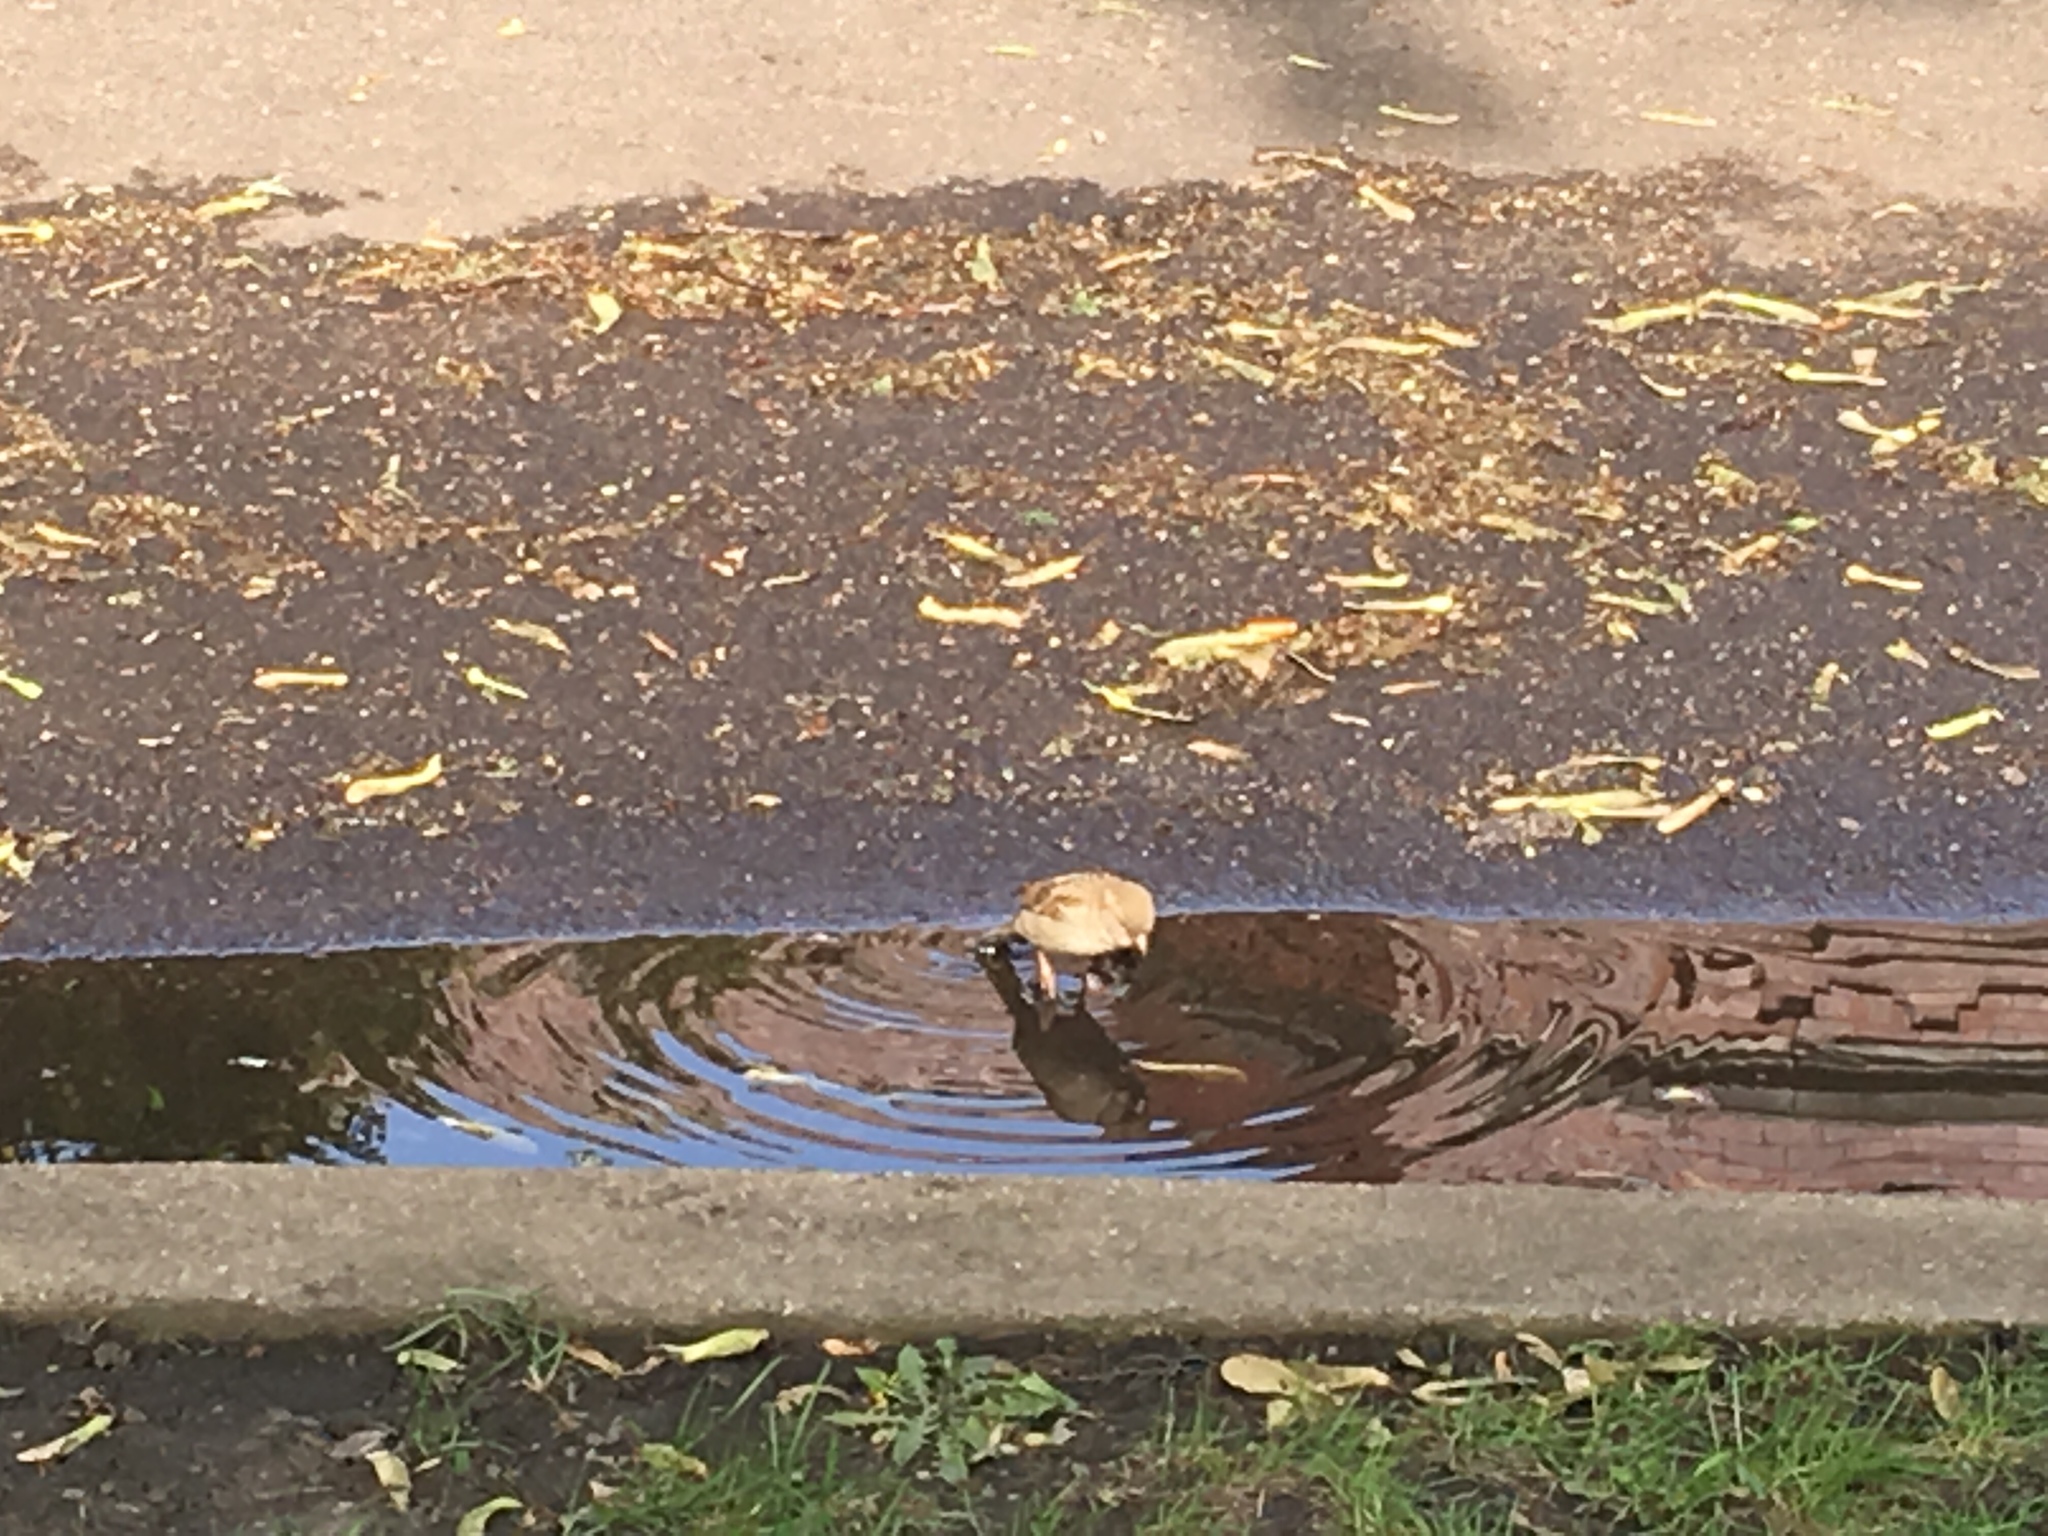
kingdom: Animalia
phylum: Chordata
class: Aves
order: Passeriformes
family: Passeridae
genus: Passer
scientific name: Passer domesticus
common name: House sparrow
